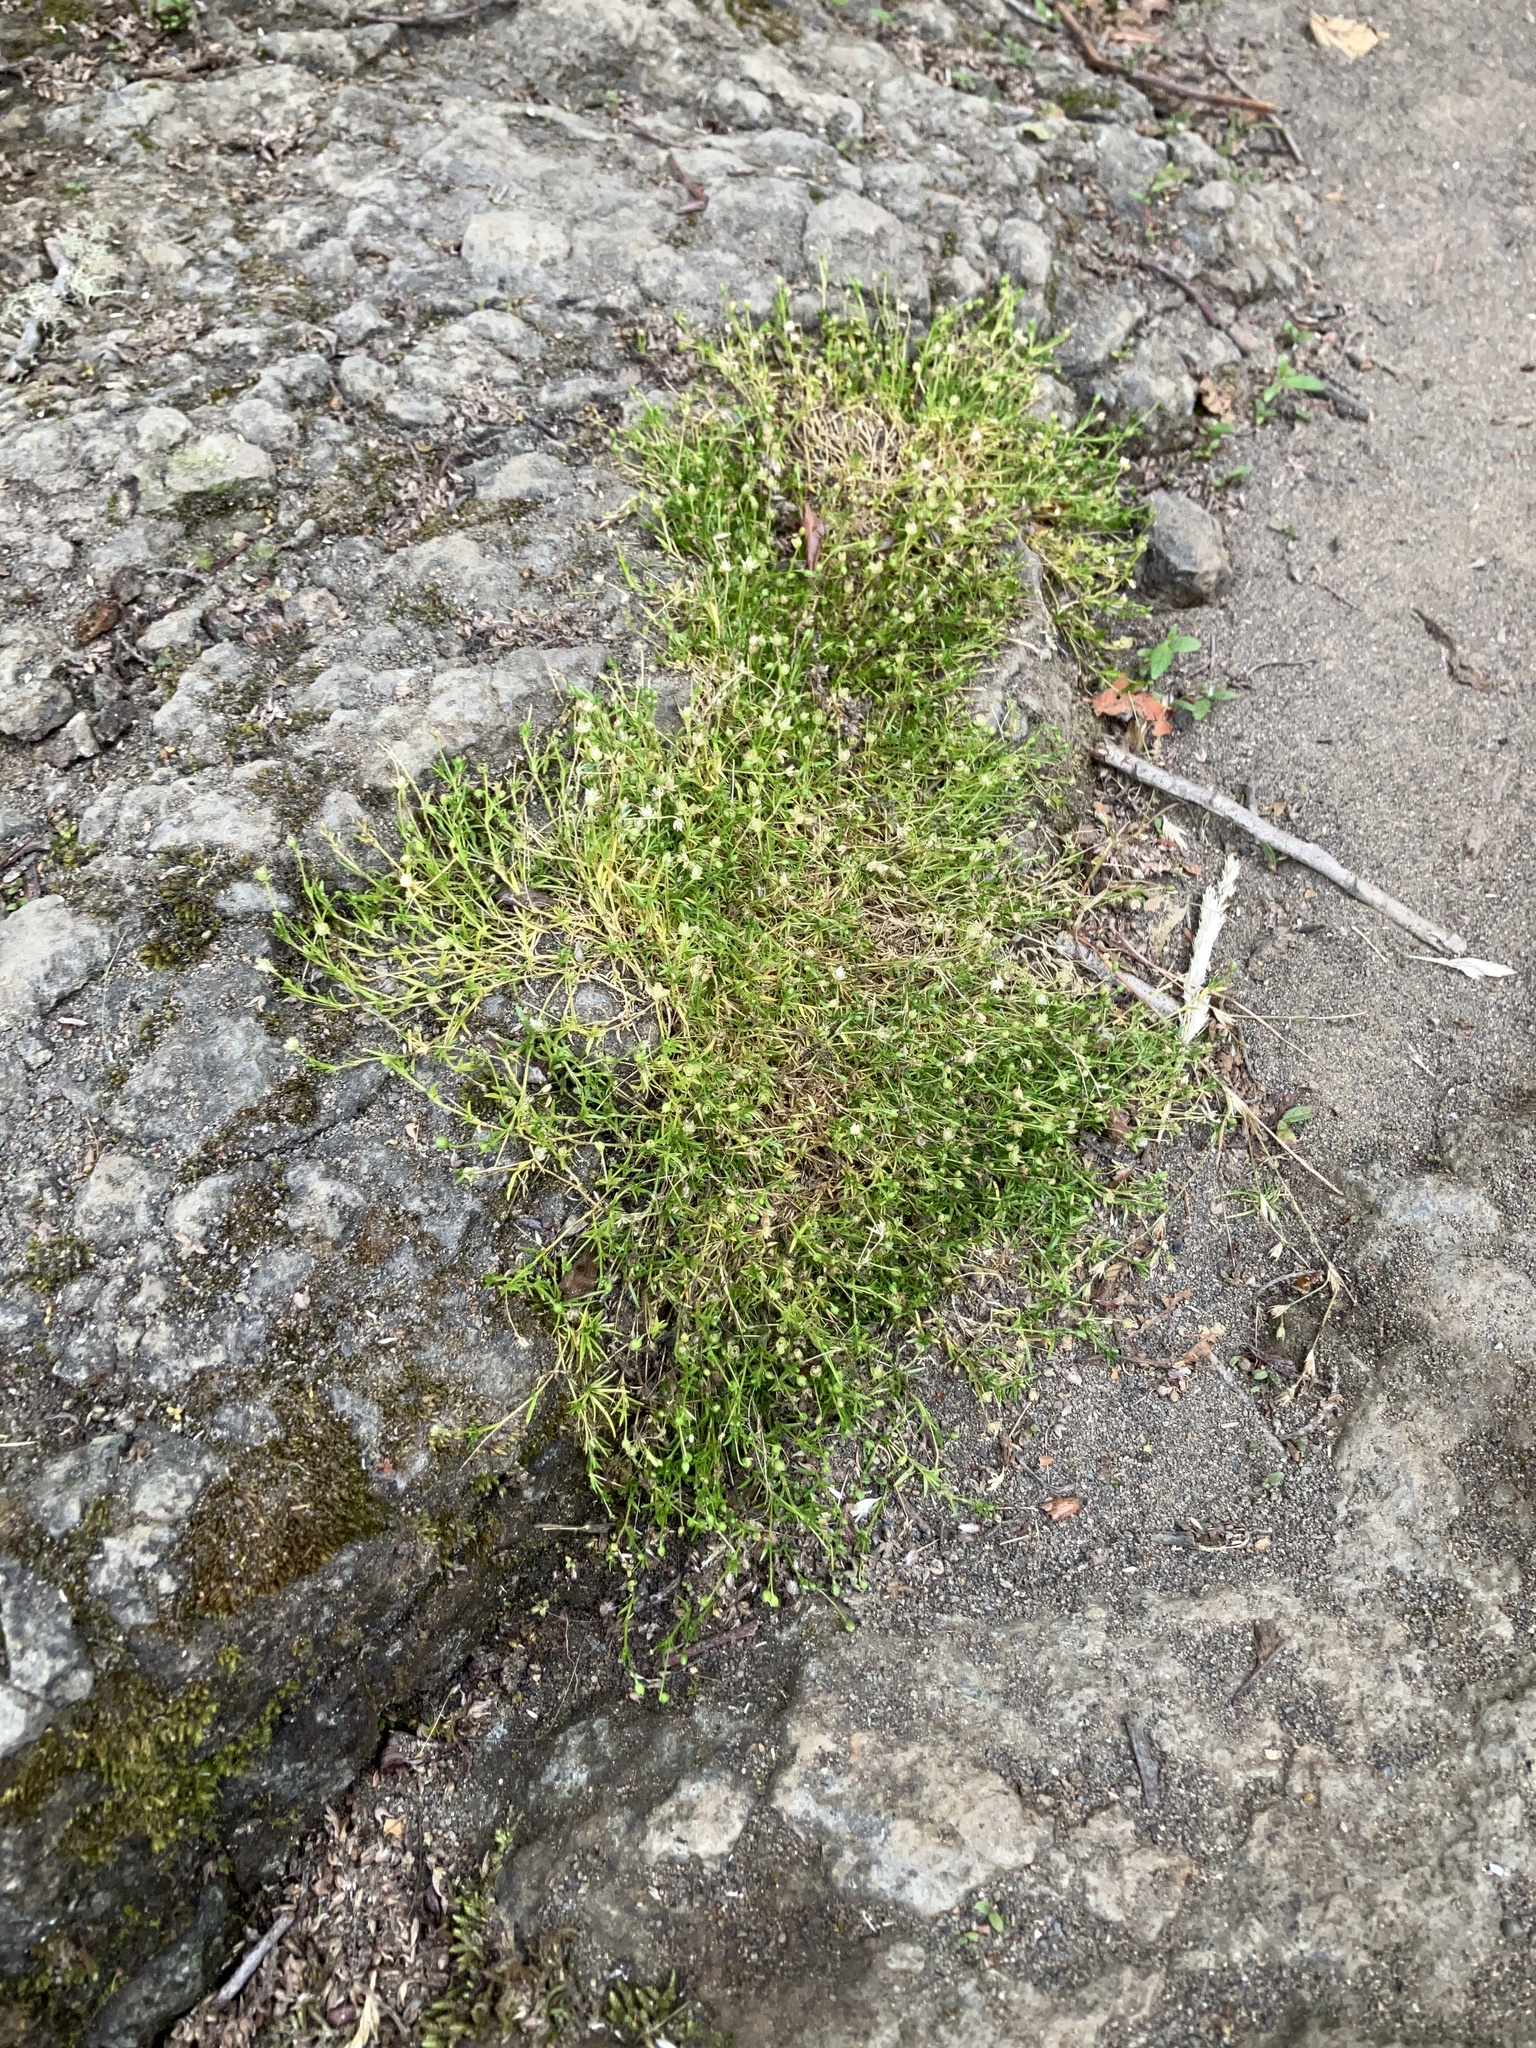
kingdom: Plantae
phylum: Tracheophyta
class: Magnoliopsida
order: Caryophyllales
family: Caryophyllaceae
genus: Sagina
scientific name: Sagina apetala
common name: Annual pearlwort
